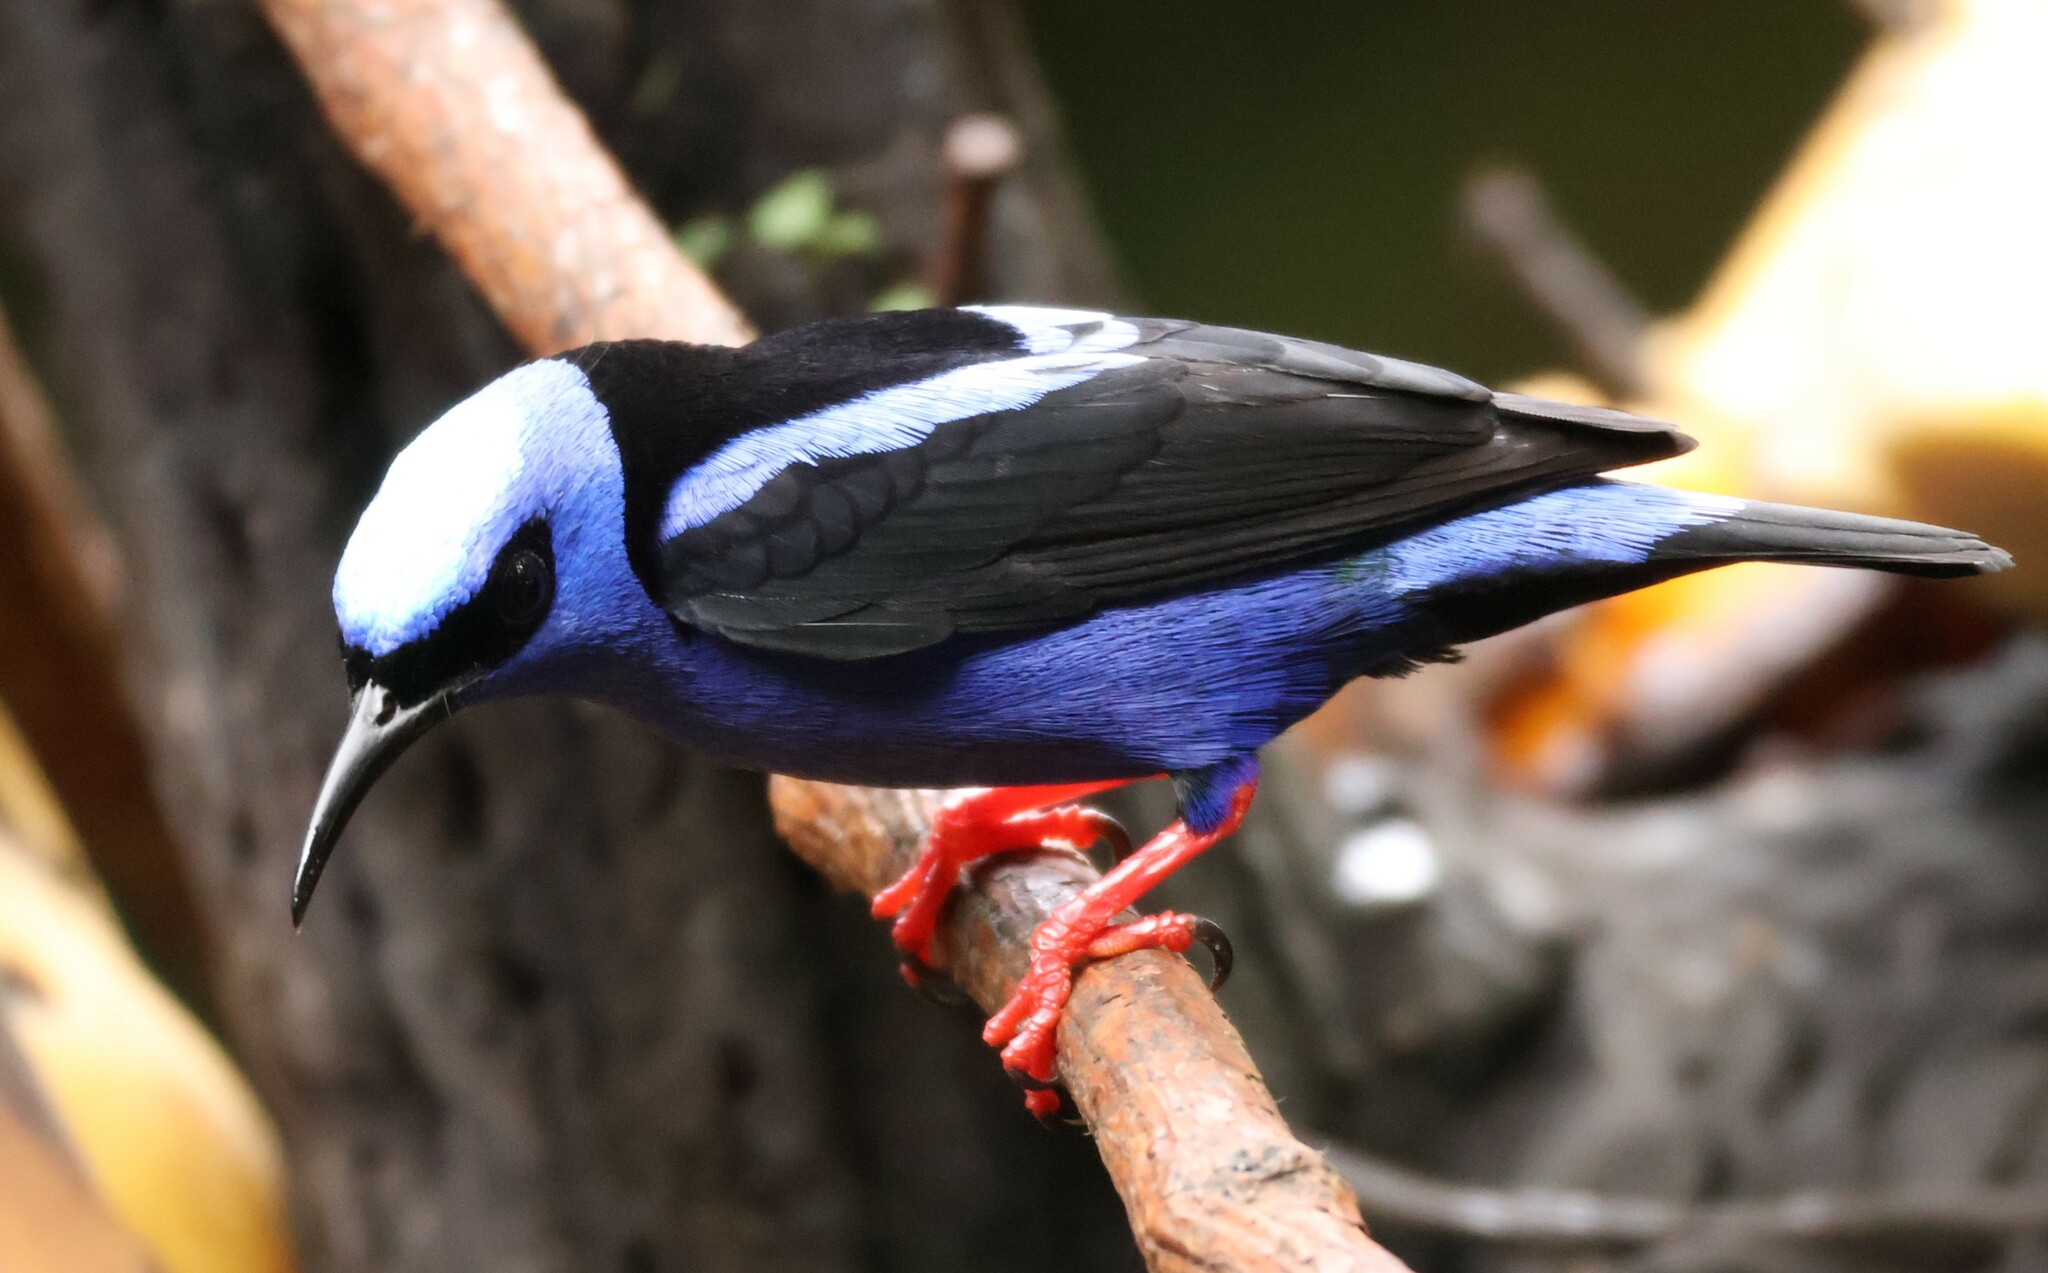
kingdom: Animalia
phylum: Chordata
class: Aves
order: Passeriformes
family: Thraupidae
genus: Cyanerpes
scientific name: Cyanerpes cyaneus
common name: Red-legged honeycreeper
